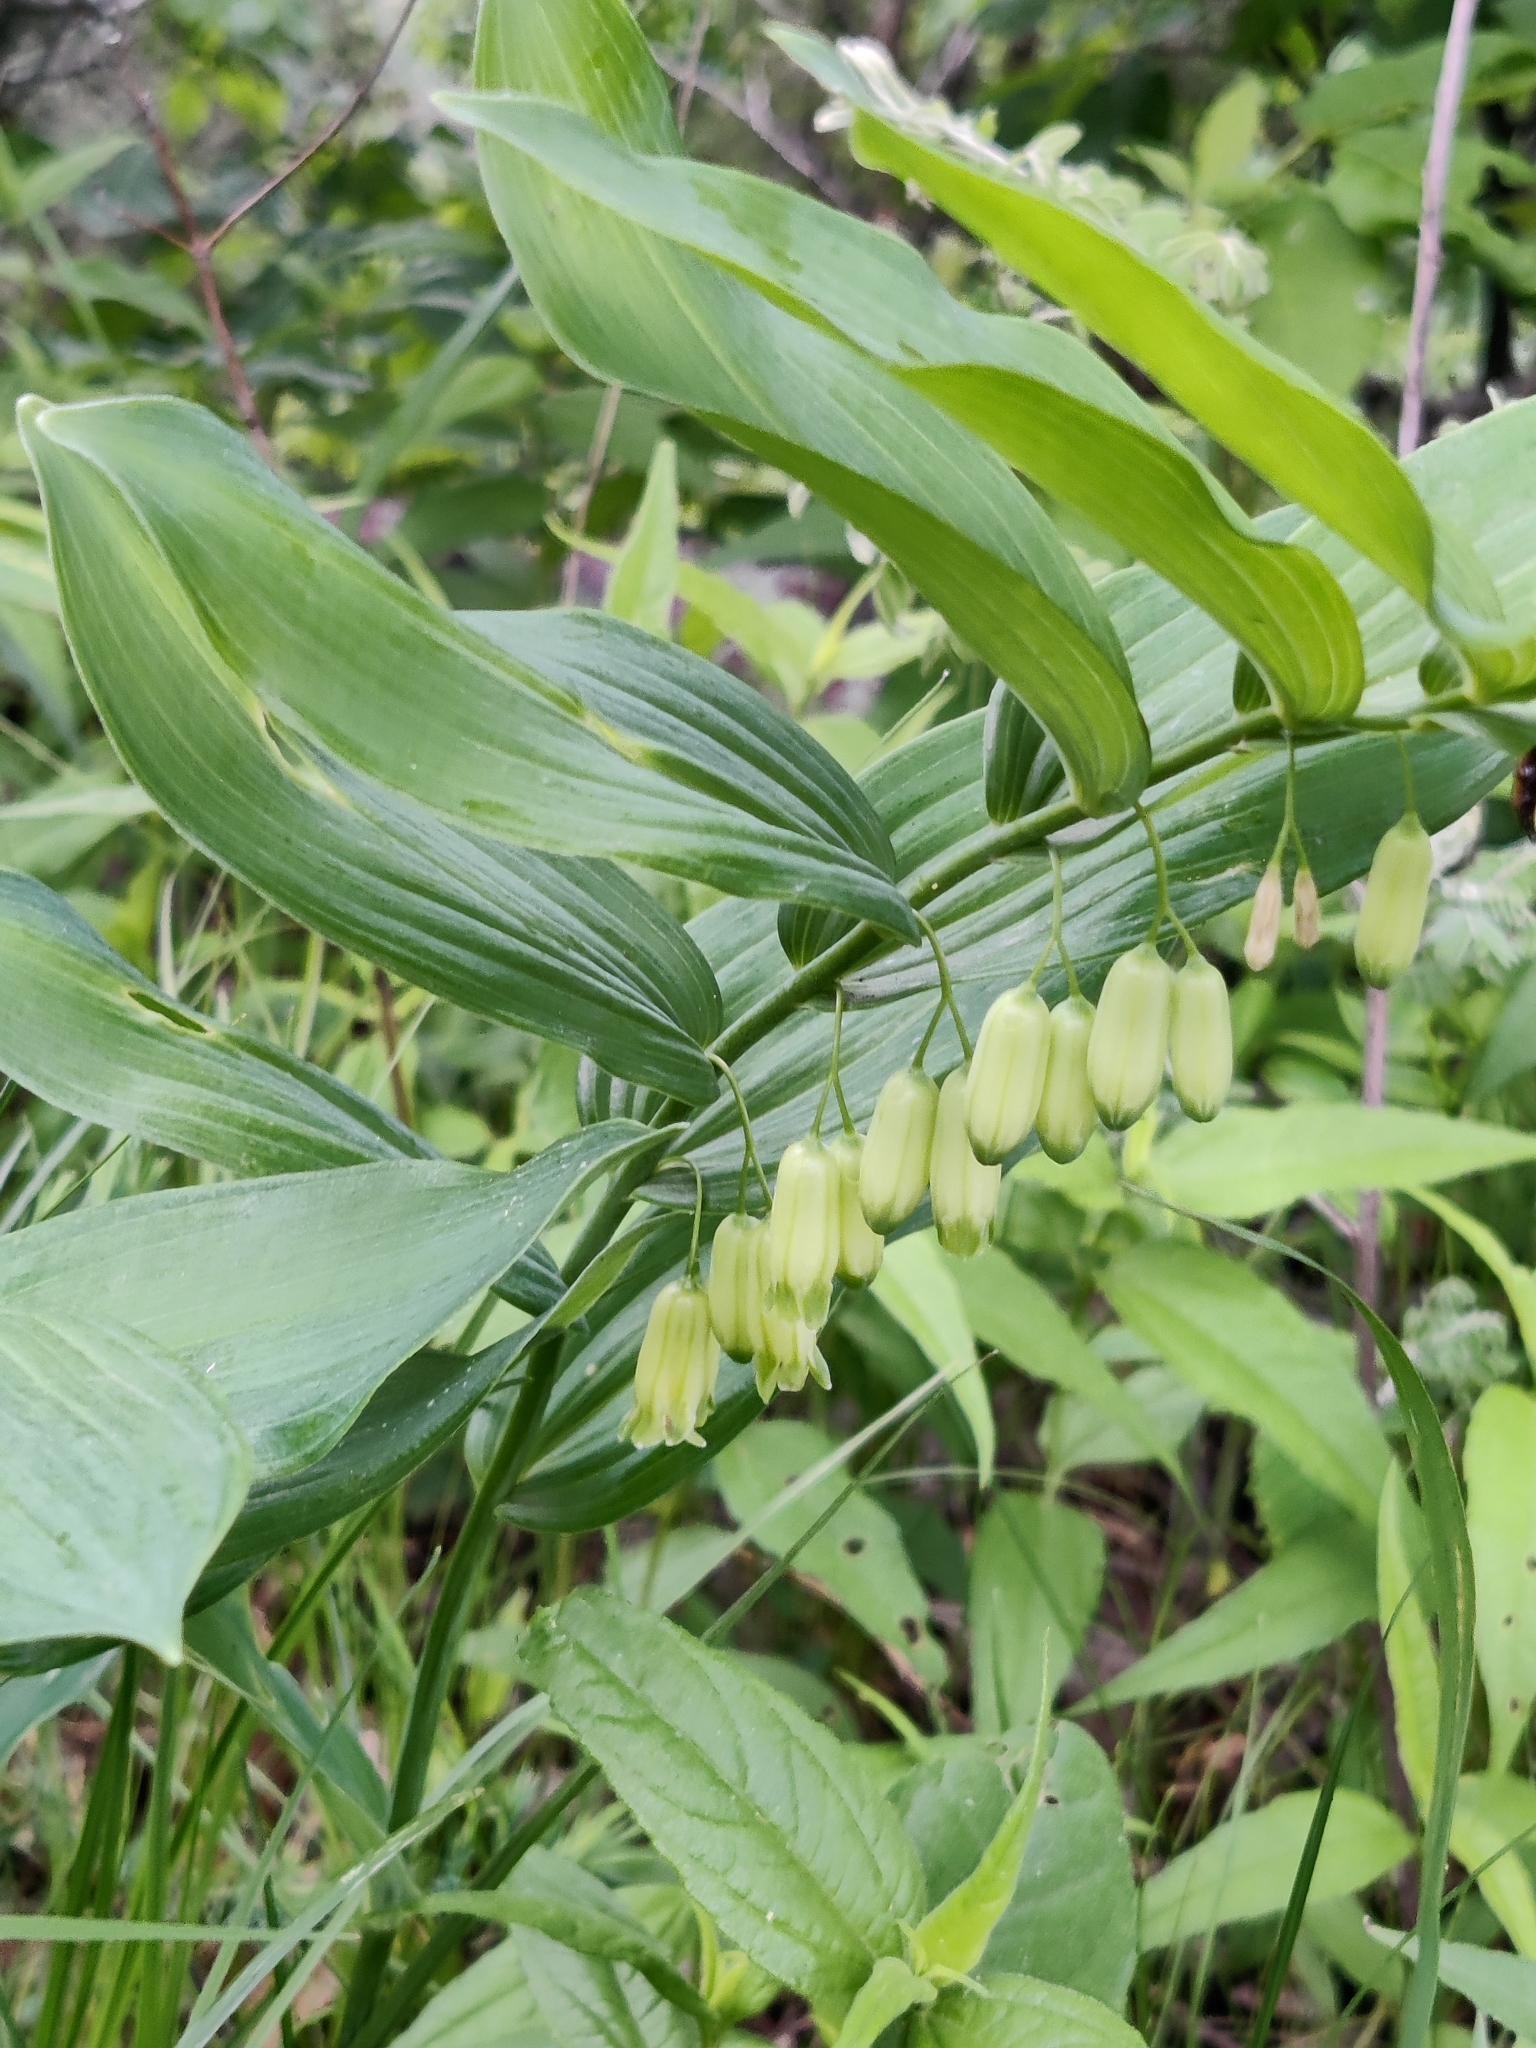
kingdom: Plantae
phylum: Tracheophyta
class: Liliopsida
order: Asparagales
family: Asparagaceae
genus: Polygonatum
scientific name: Polygonatum biflorum
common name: American solomon's-seal
